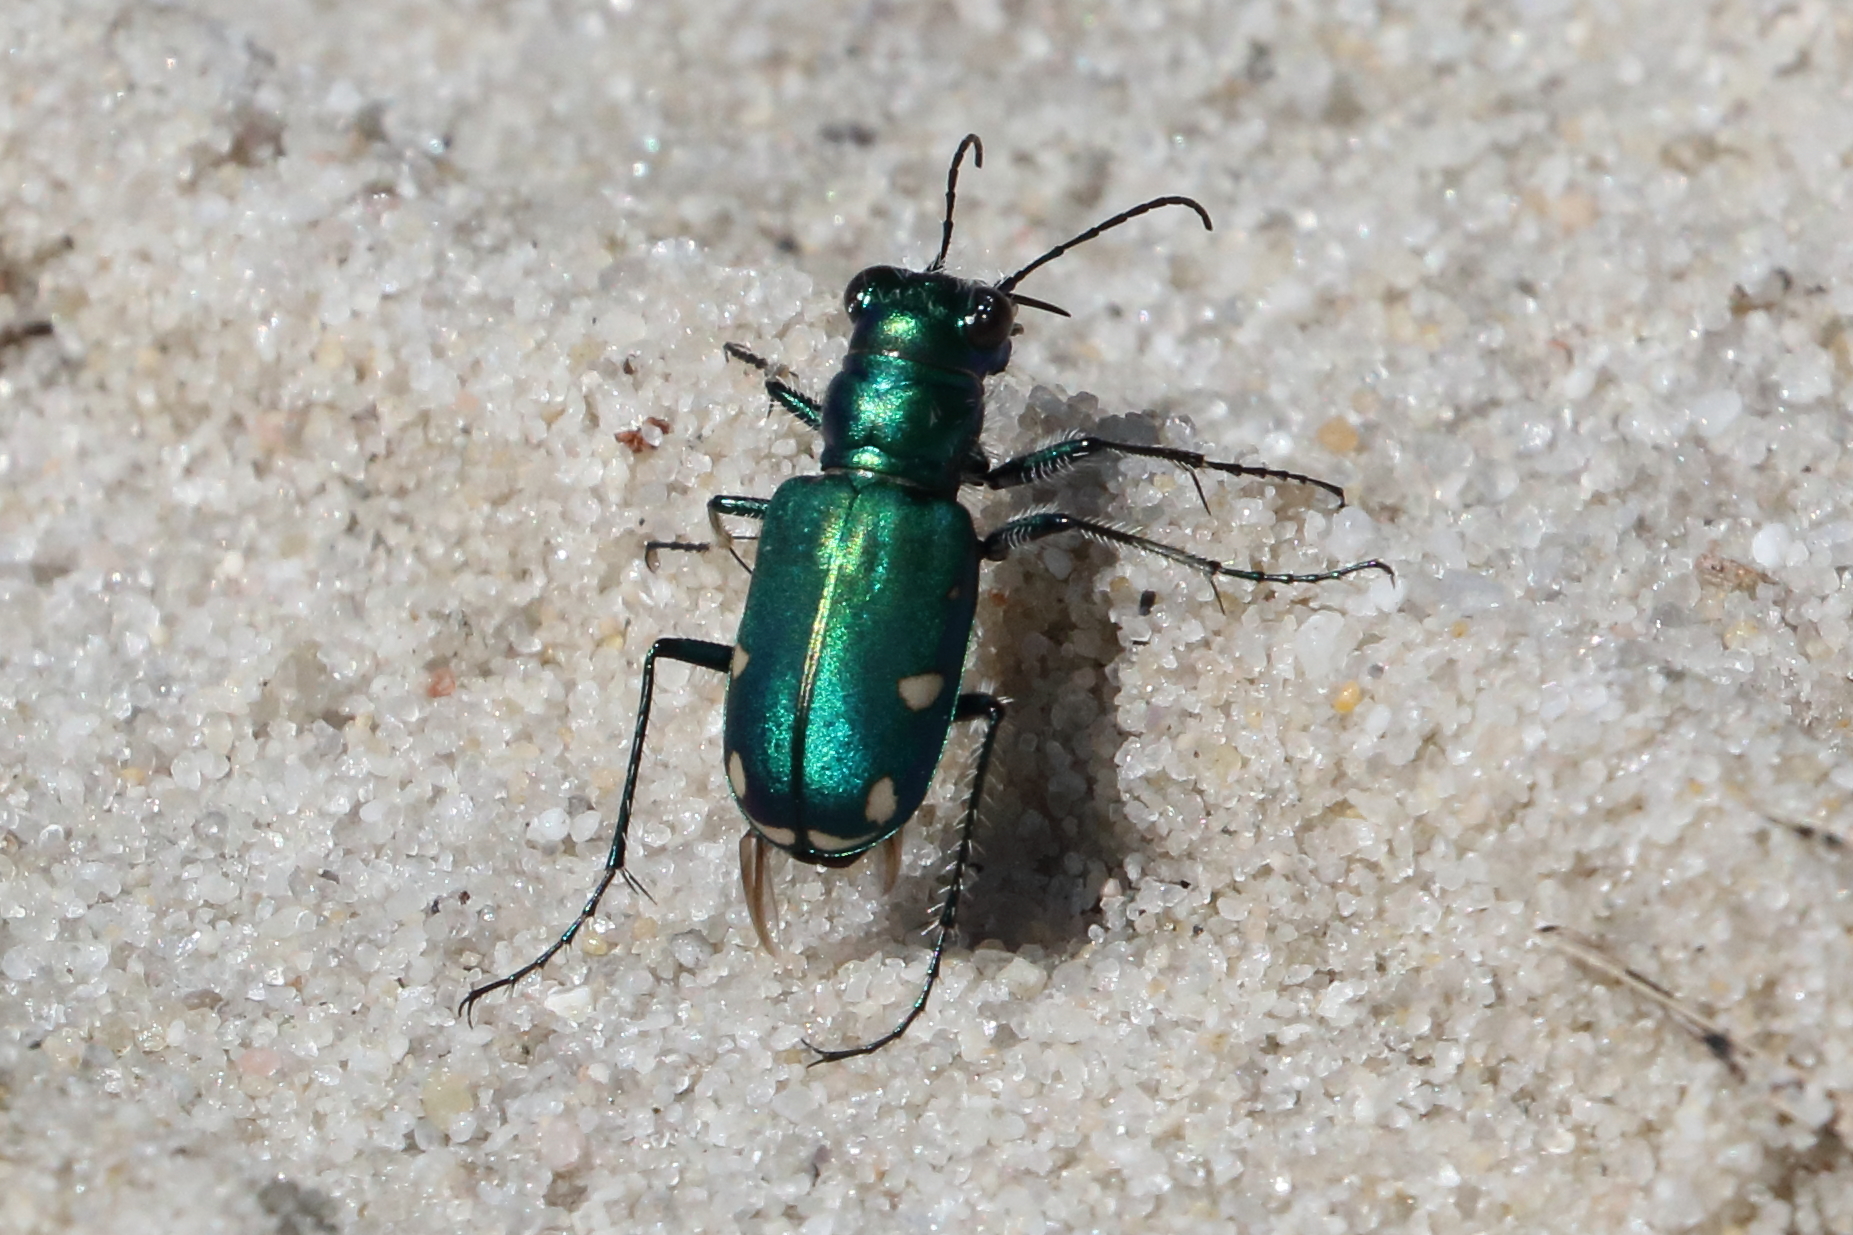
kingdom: Animalia
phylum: Arthropoda
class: Insecta
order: Coleoptera
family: Carabidae
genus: Cicindela
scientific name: Cicindela scutellaris
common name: Festive tiger beetle
